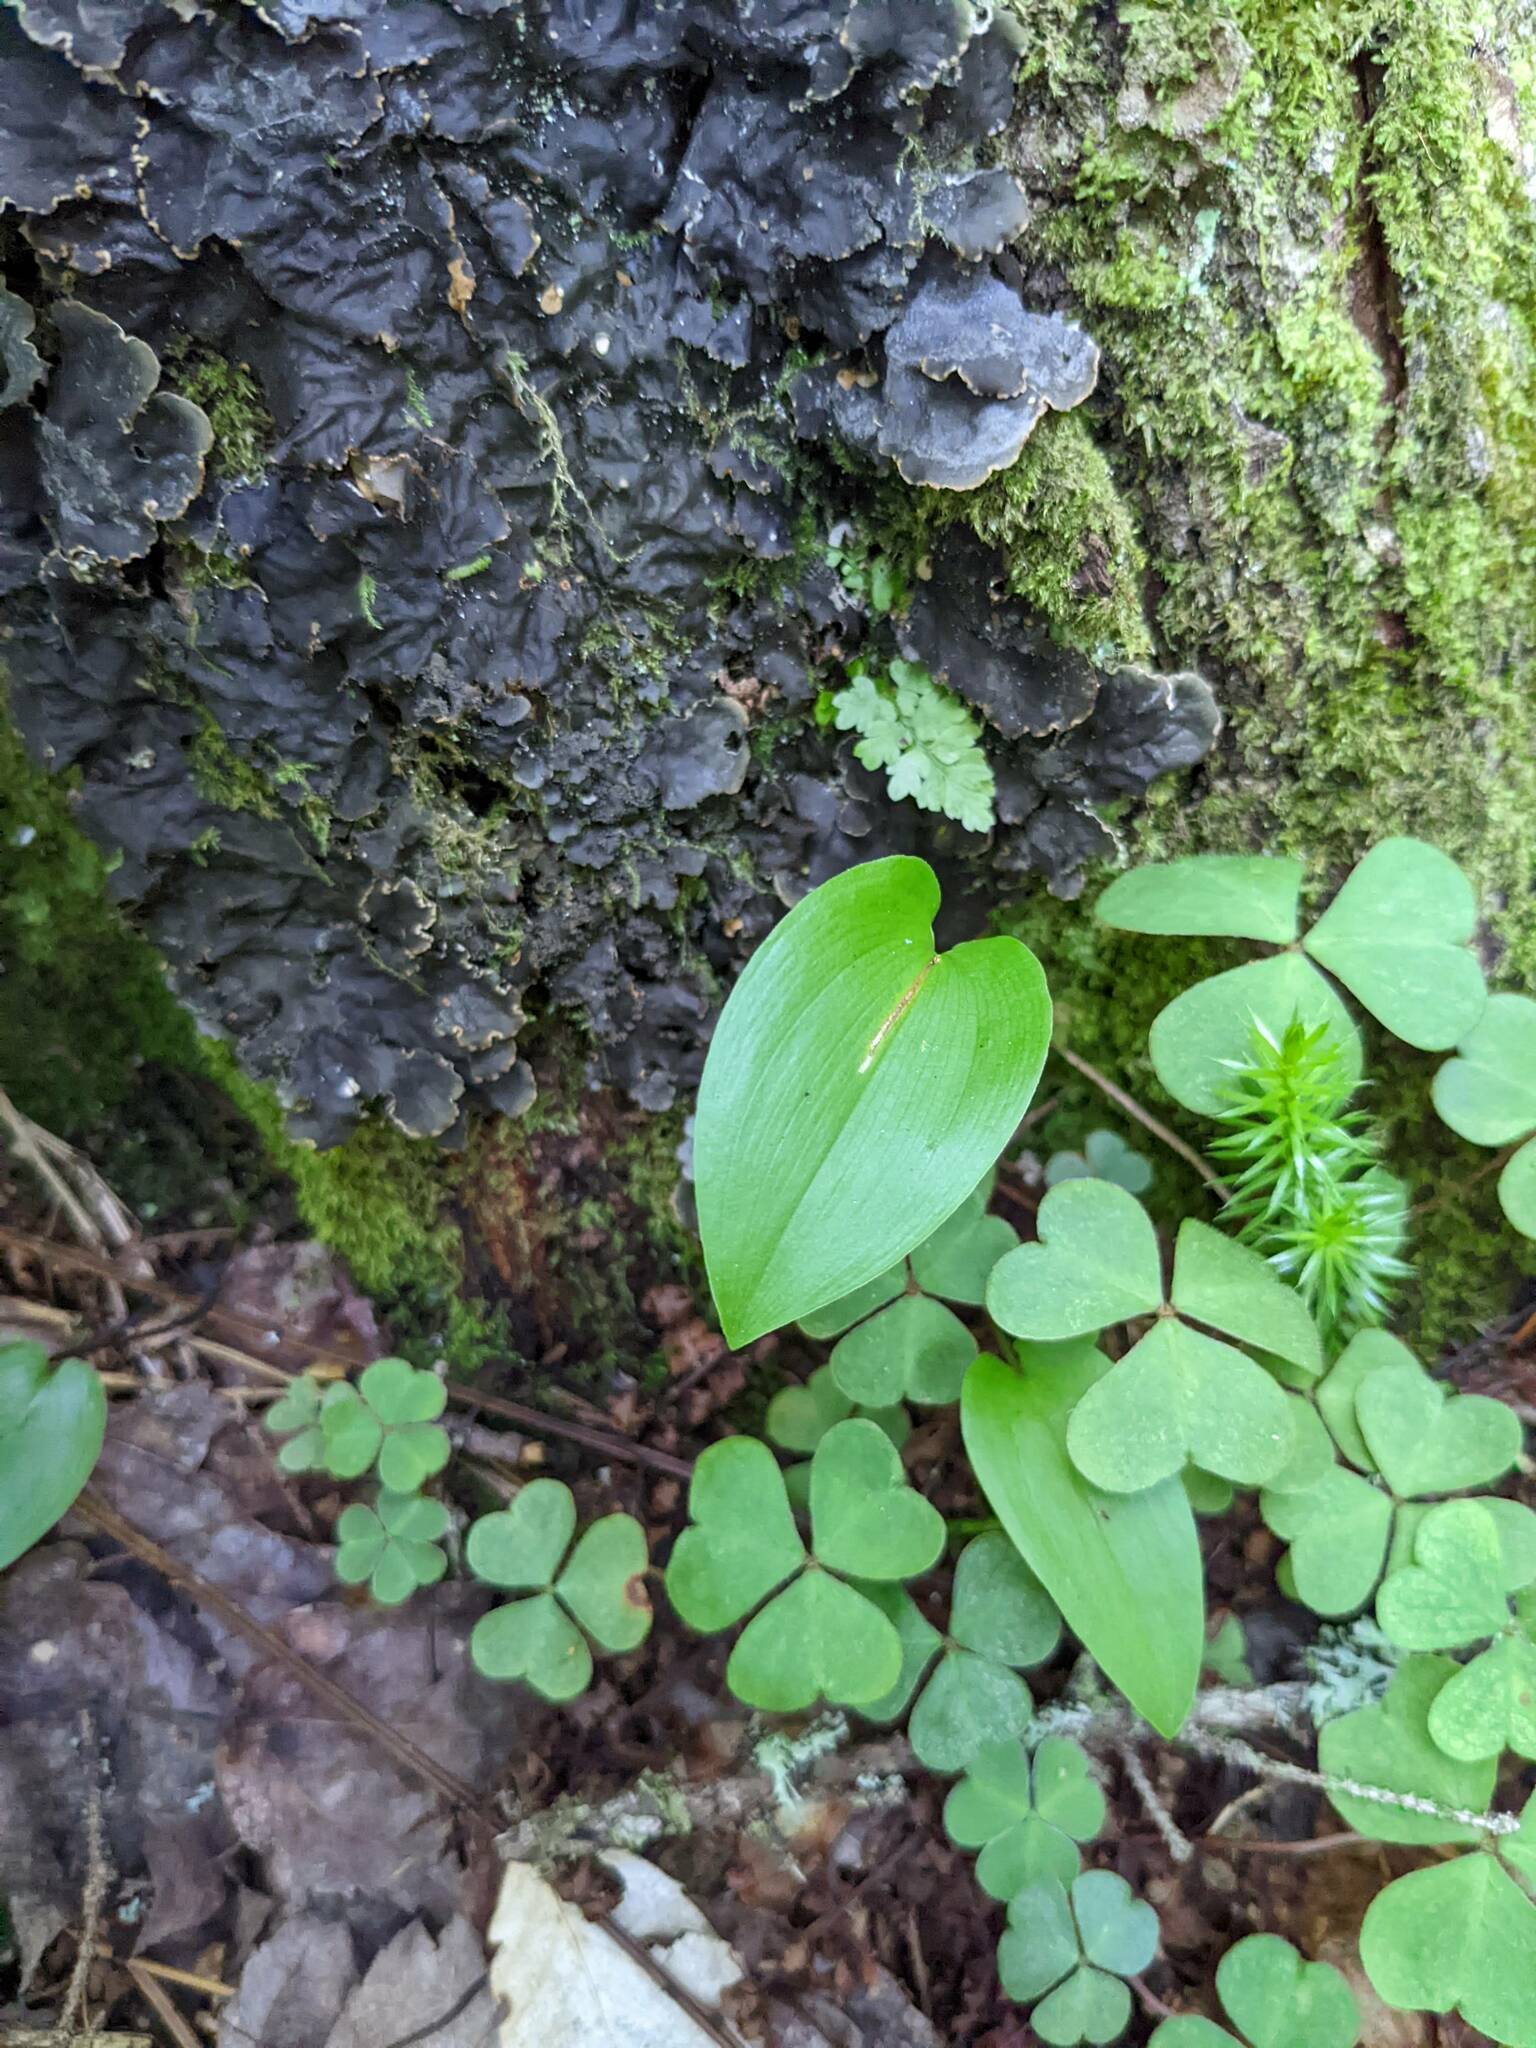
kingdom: Plantae
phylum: Tracheophyta
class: Liliopsida
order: Asparagales
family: Asparagaceae
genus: Maianthemum
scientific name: Maianthemum canadense
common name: False lily-of-the-valley
